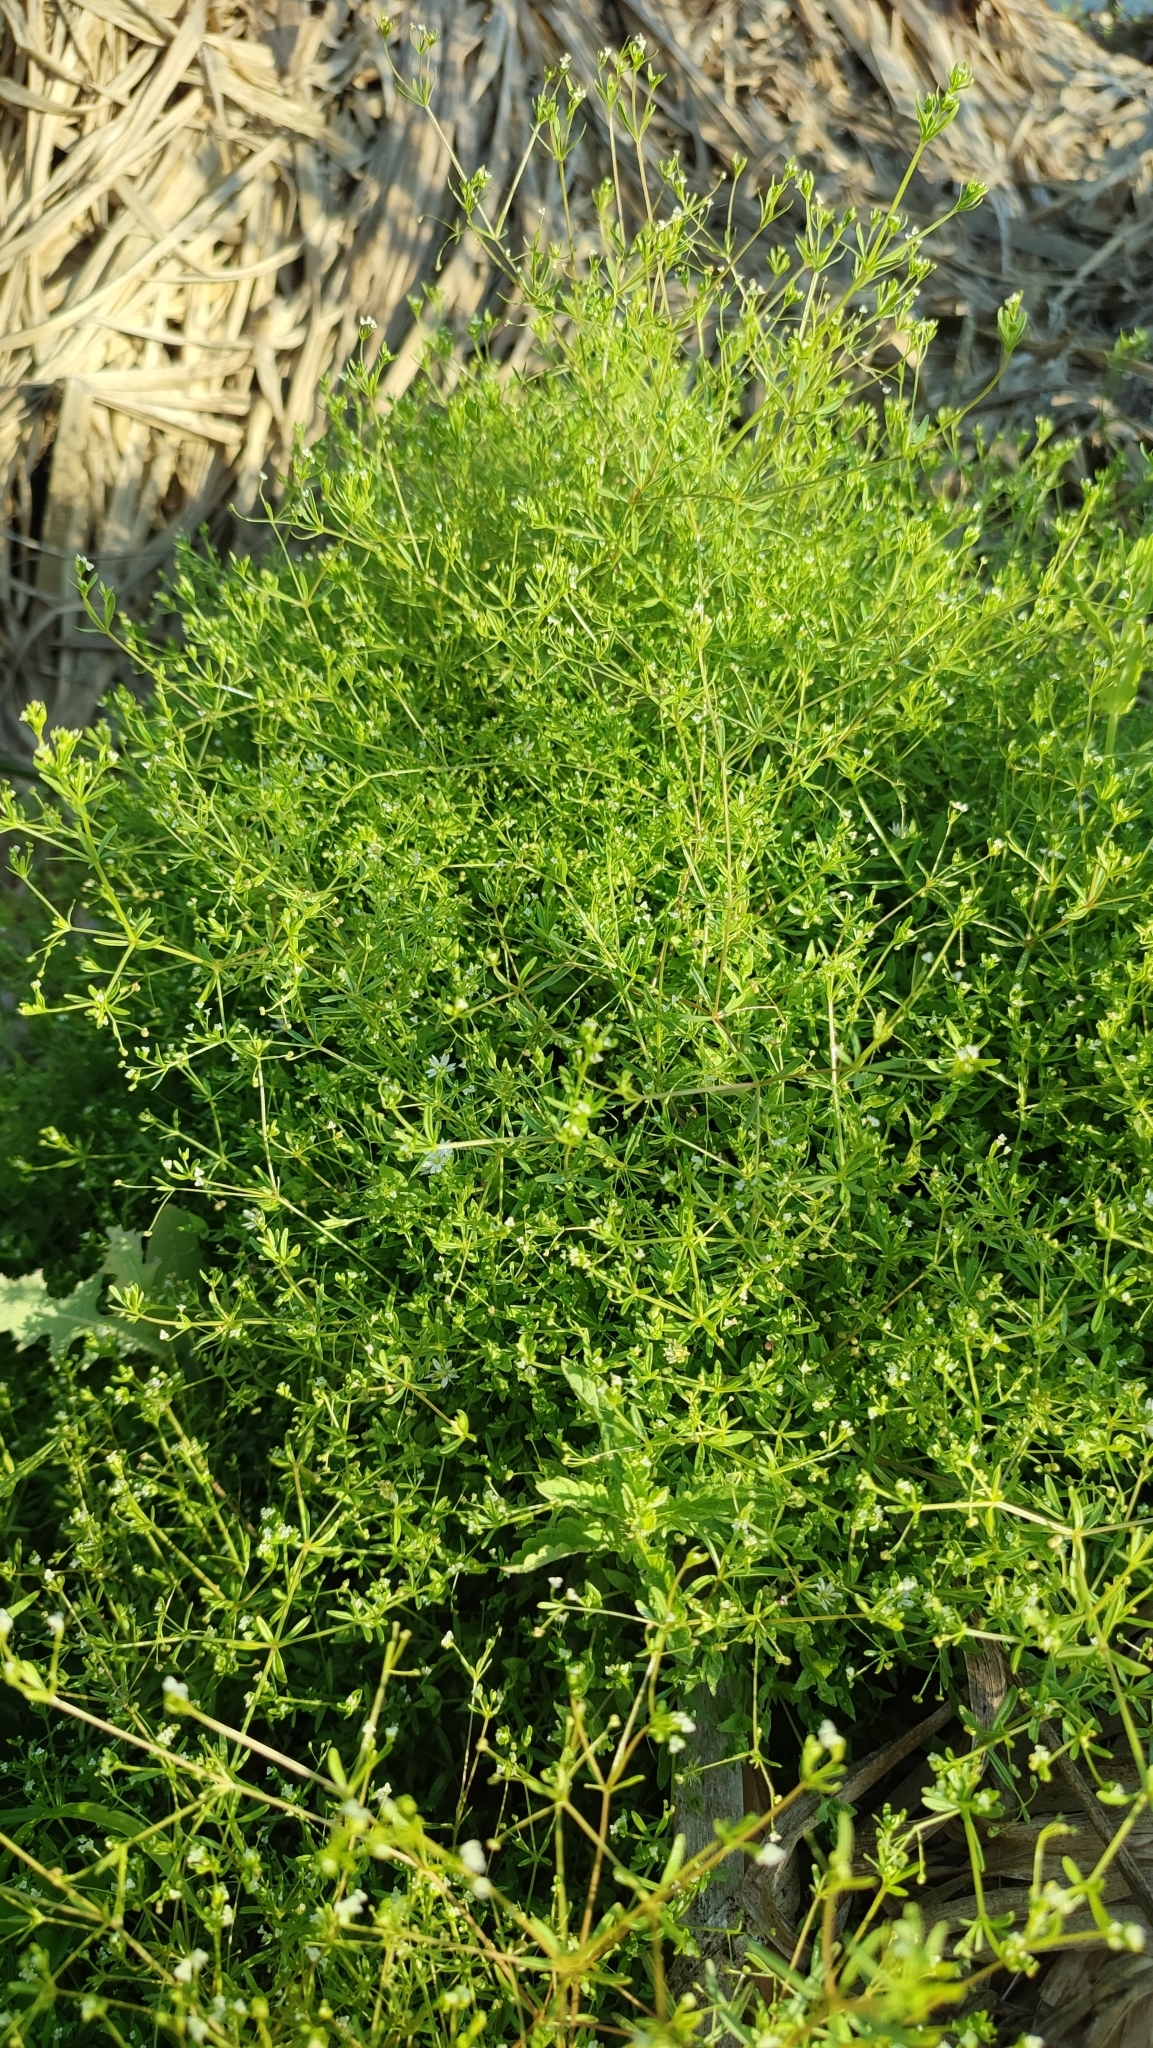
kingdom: Plantae
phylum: Tracheophyta
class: Magnoliopsida
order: Gentianales
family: Rubiaceae
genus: Galium
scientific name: Galium trifidum
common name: Small bedstraw
